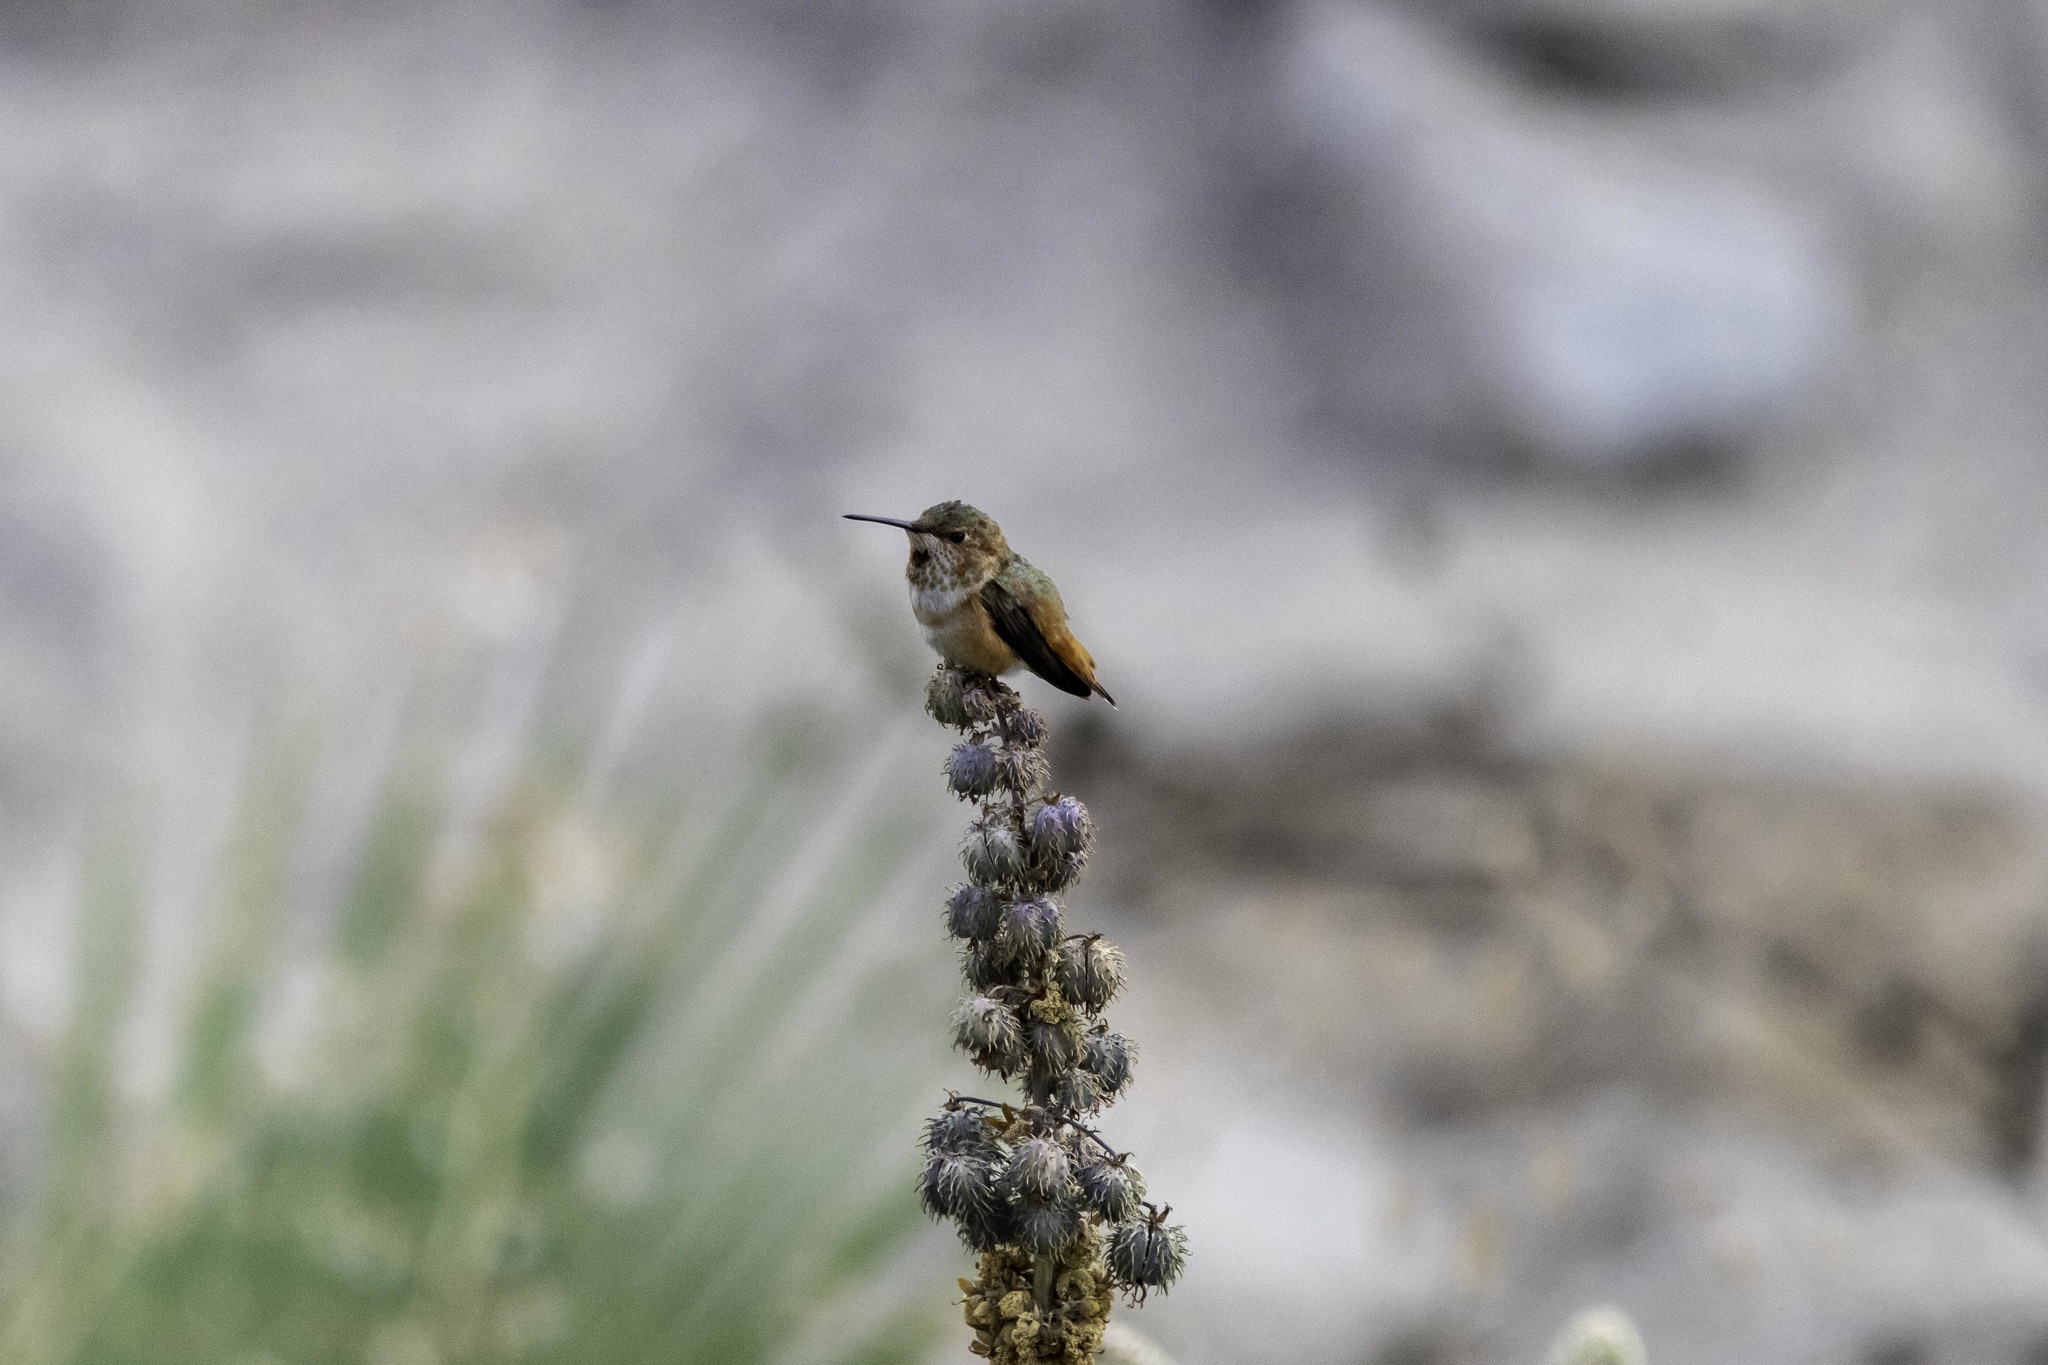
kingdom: Animalia
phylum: Chordata
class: Aves
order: Apodiformes
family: Trochilidae
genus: Selasphorus
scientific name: Selasphorus sasin
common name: Allen's hummingbird
